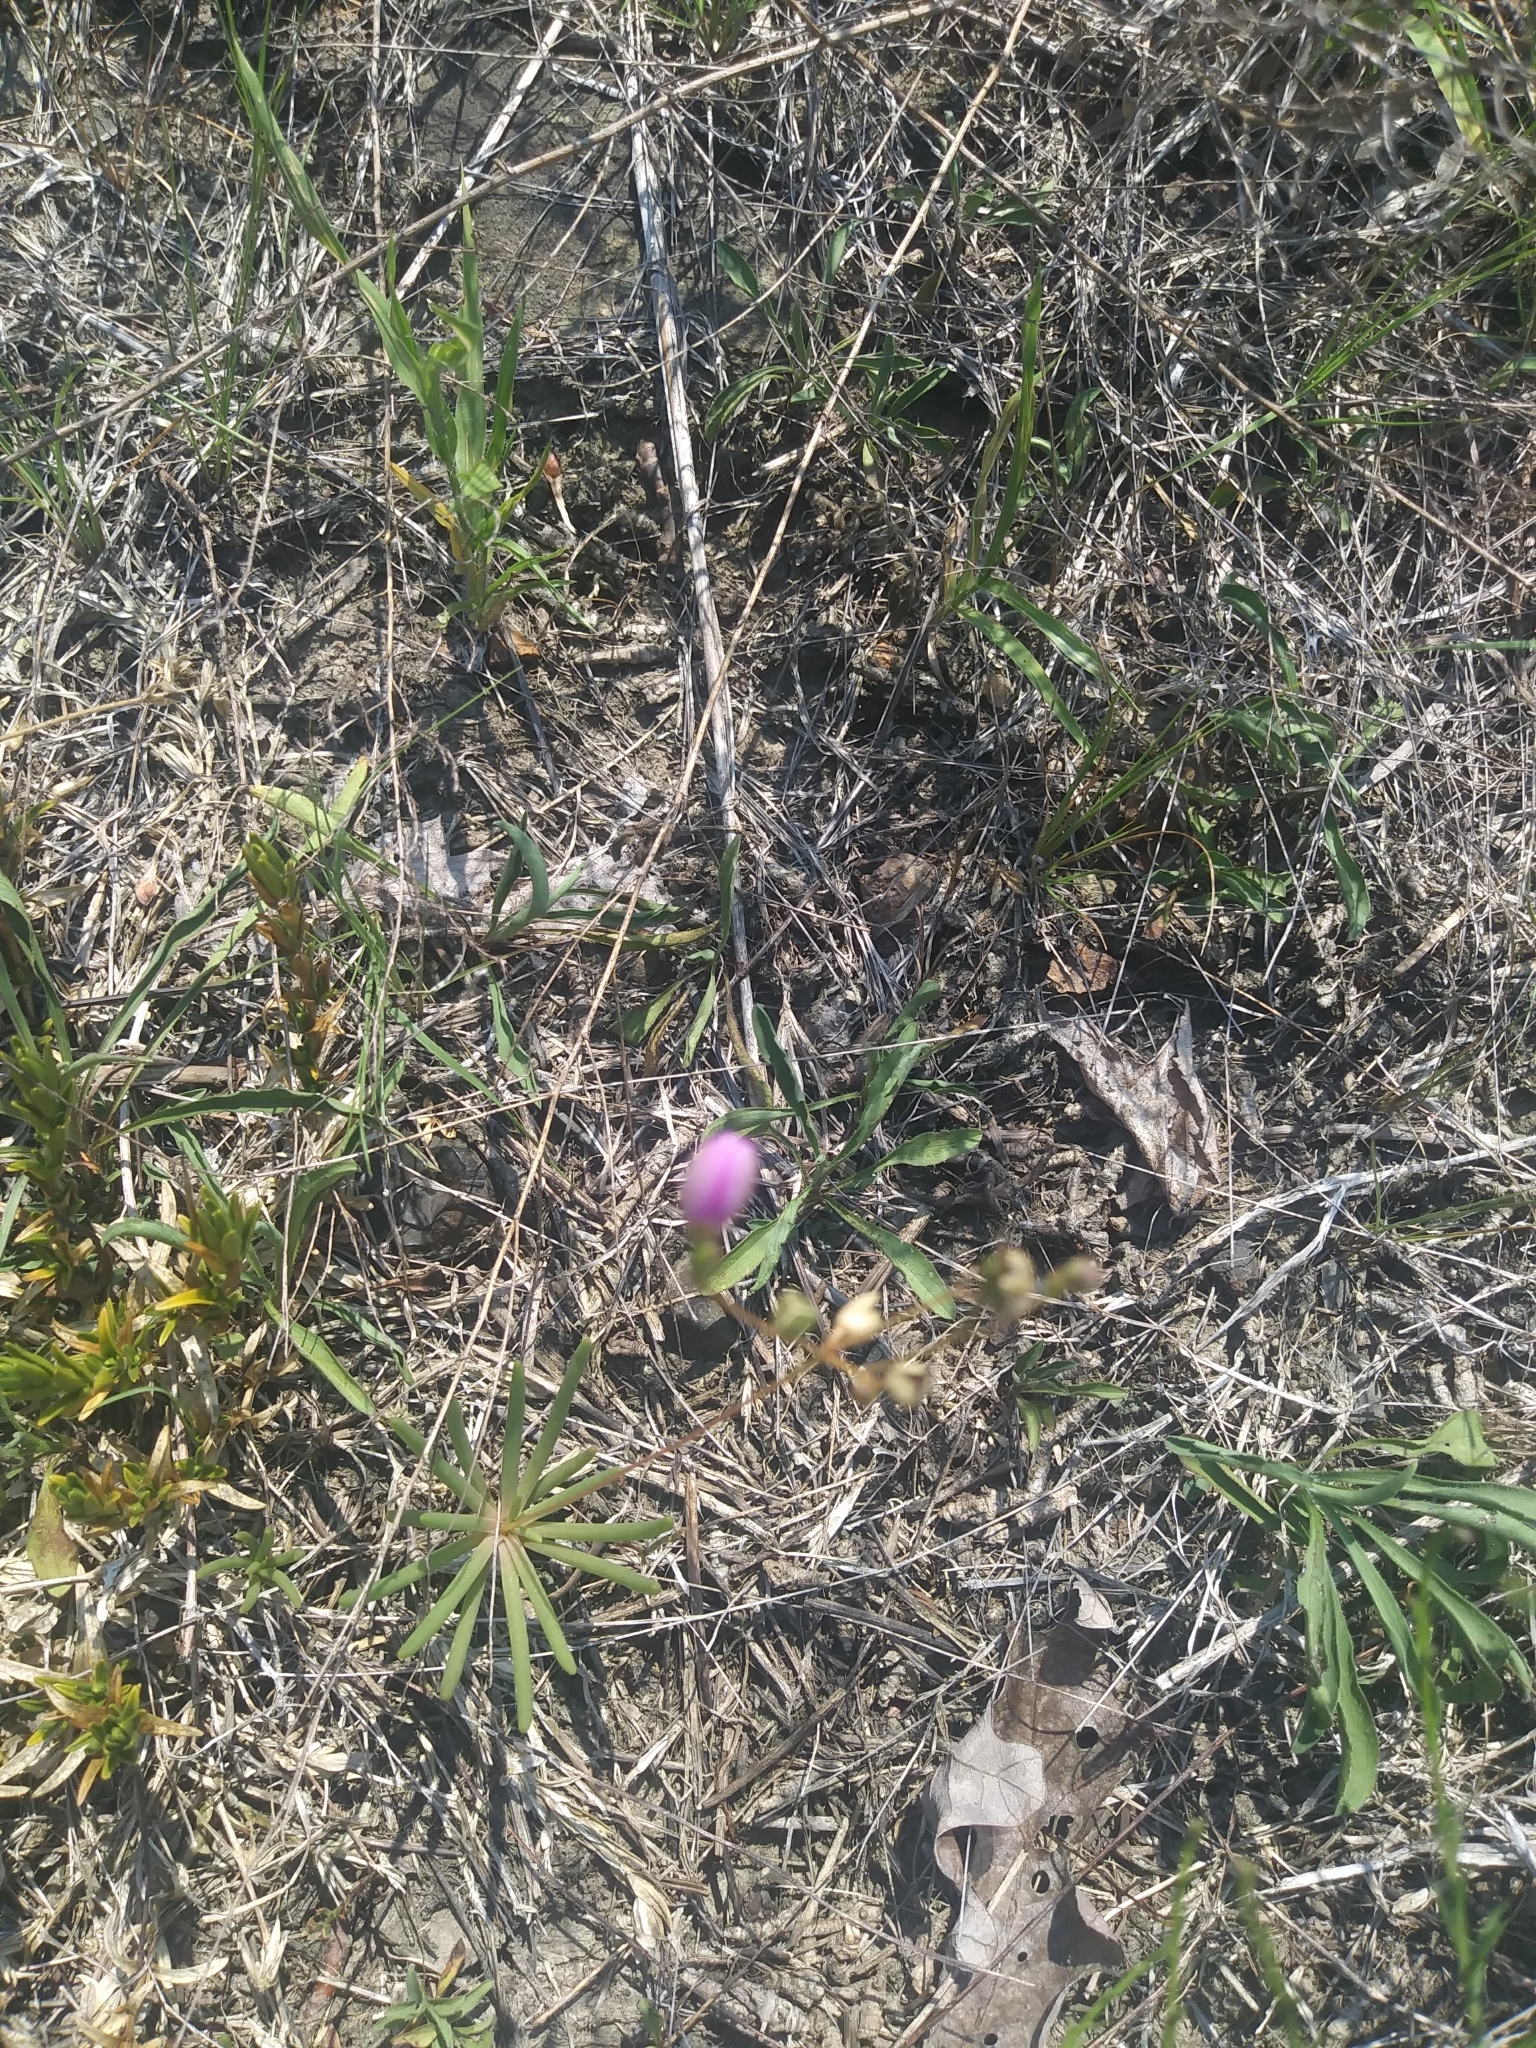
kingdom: Plantae
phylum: Tracheophyta
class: Magnoliopsida
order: Caryophyllales
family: Montiaceae
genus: Phemeranthus
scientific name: Phemeranthus teretifolius
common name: Quill fameflower
